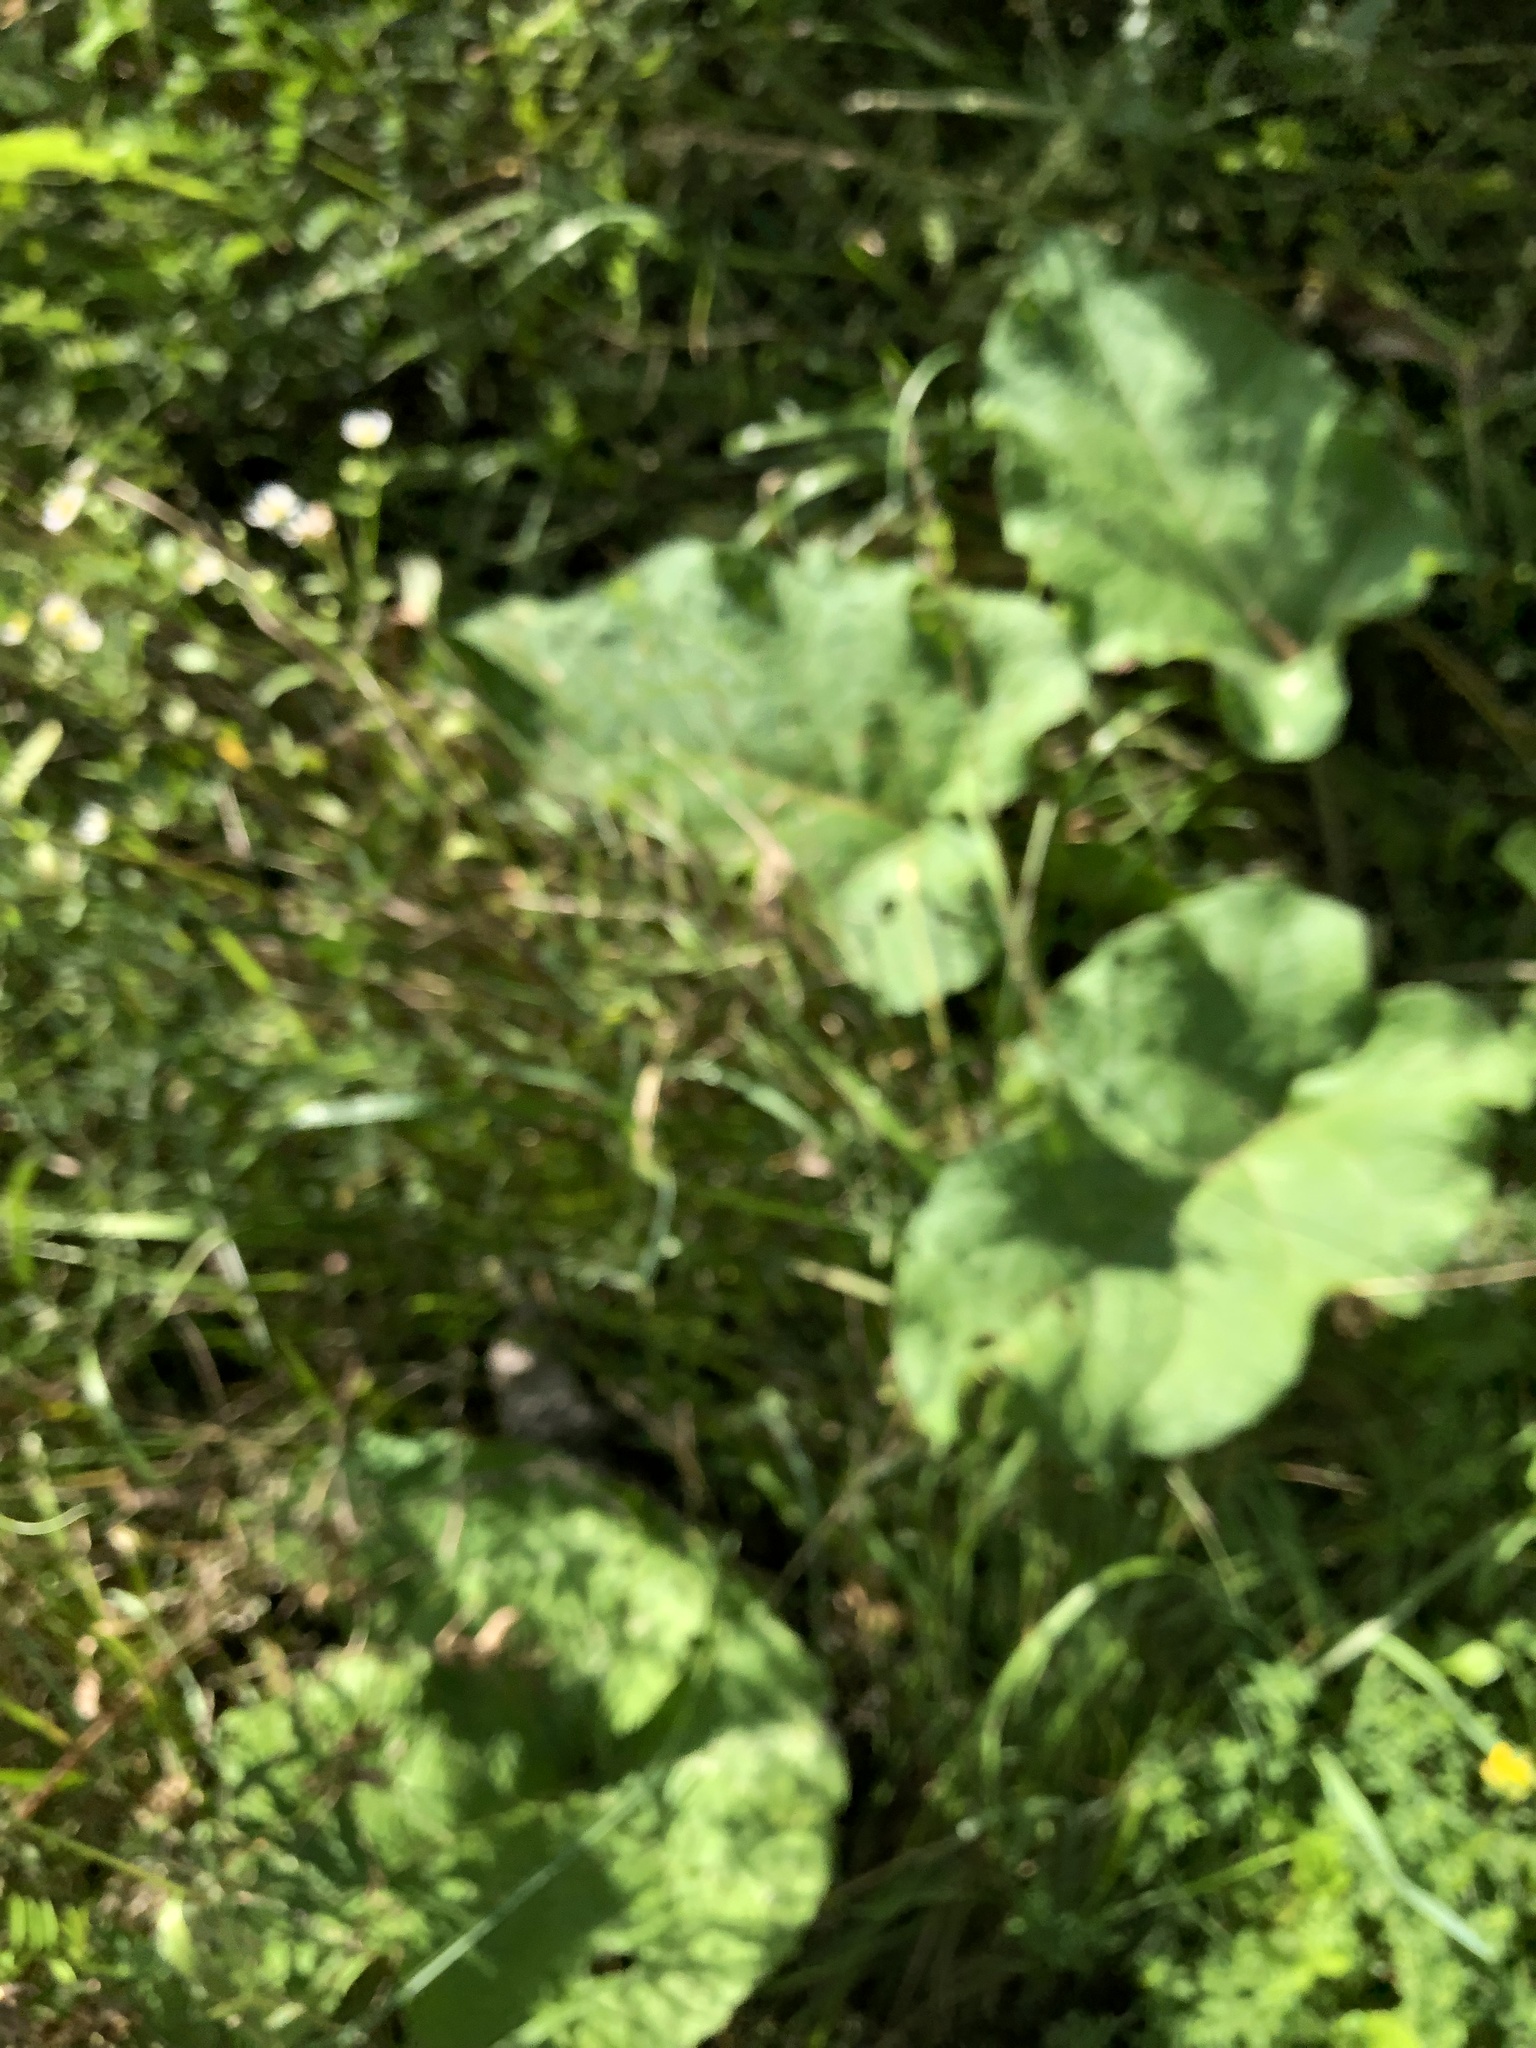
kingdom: Plantae
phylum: Tracheophyta
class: Magnoliopsida
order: Asterales
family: Asteraceae
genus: Arctium
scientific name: Arctium
